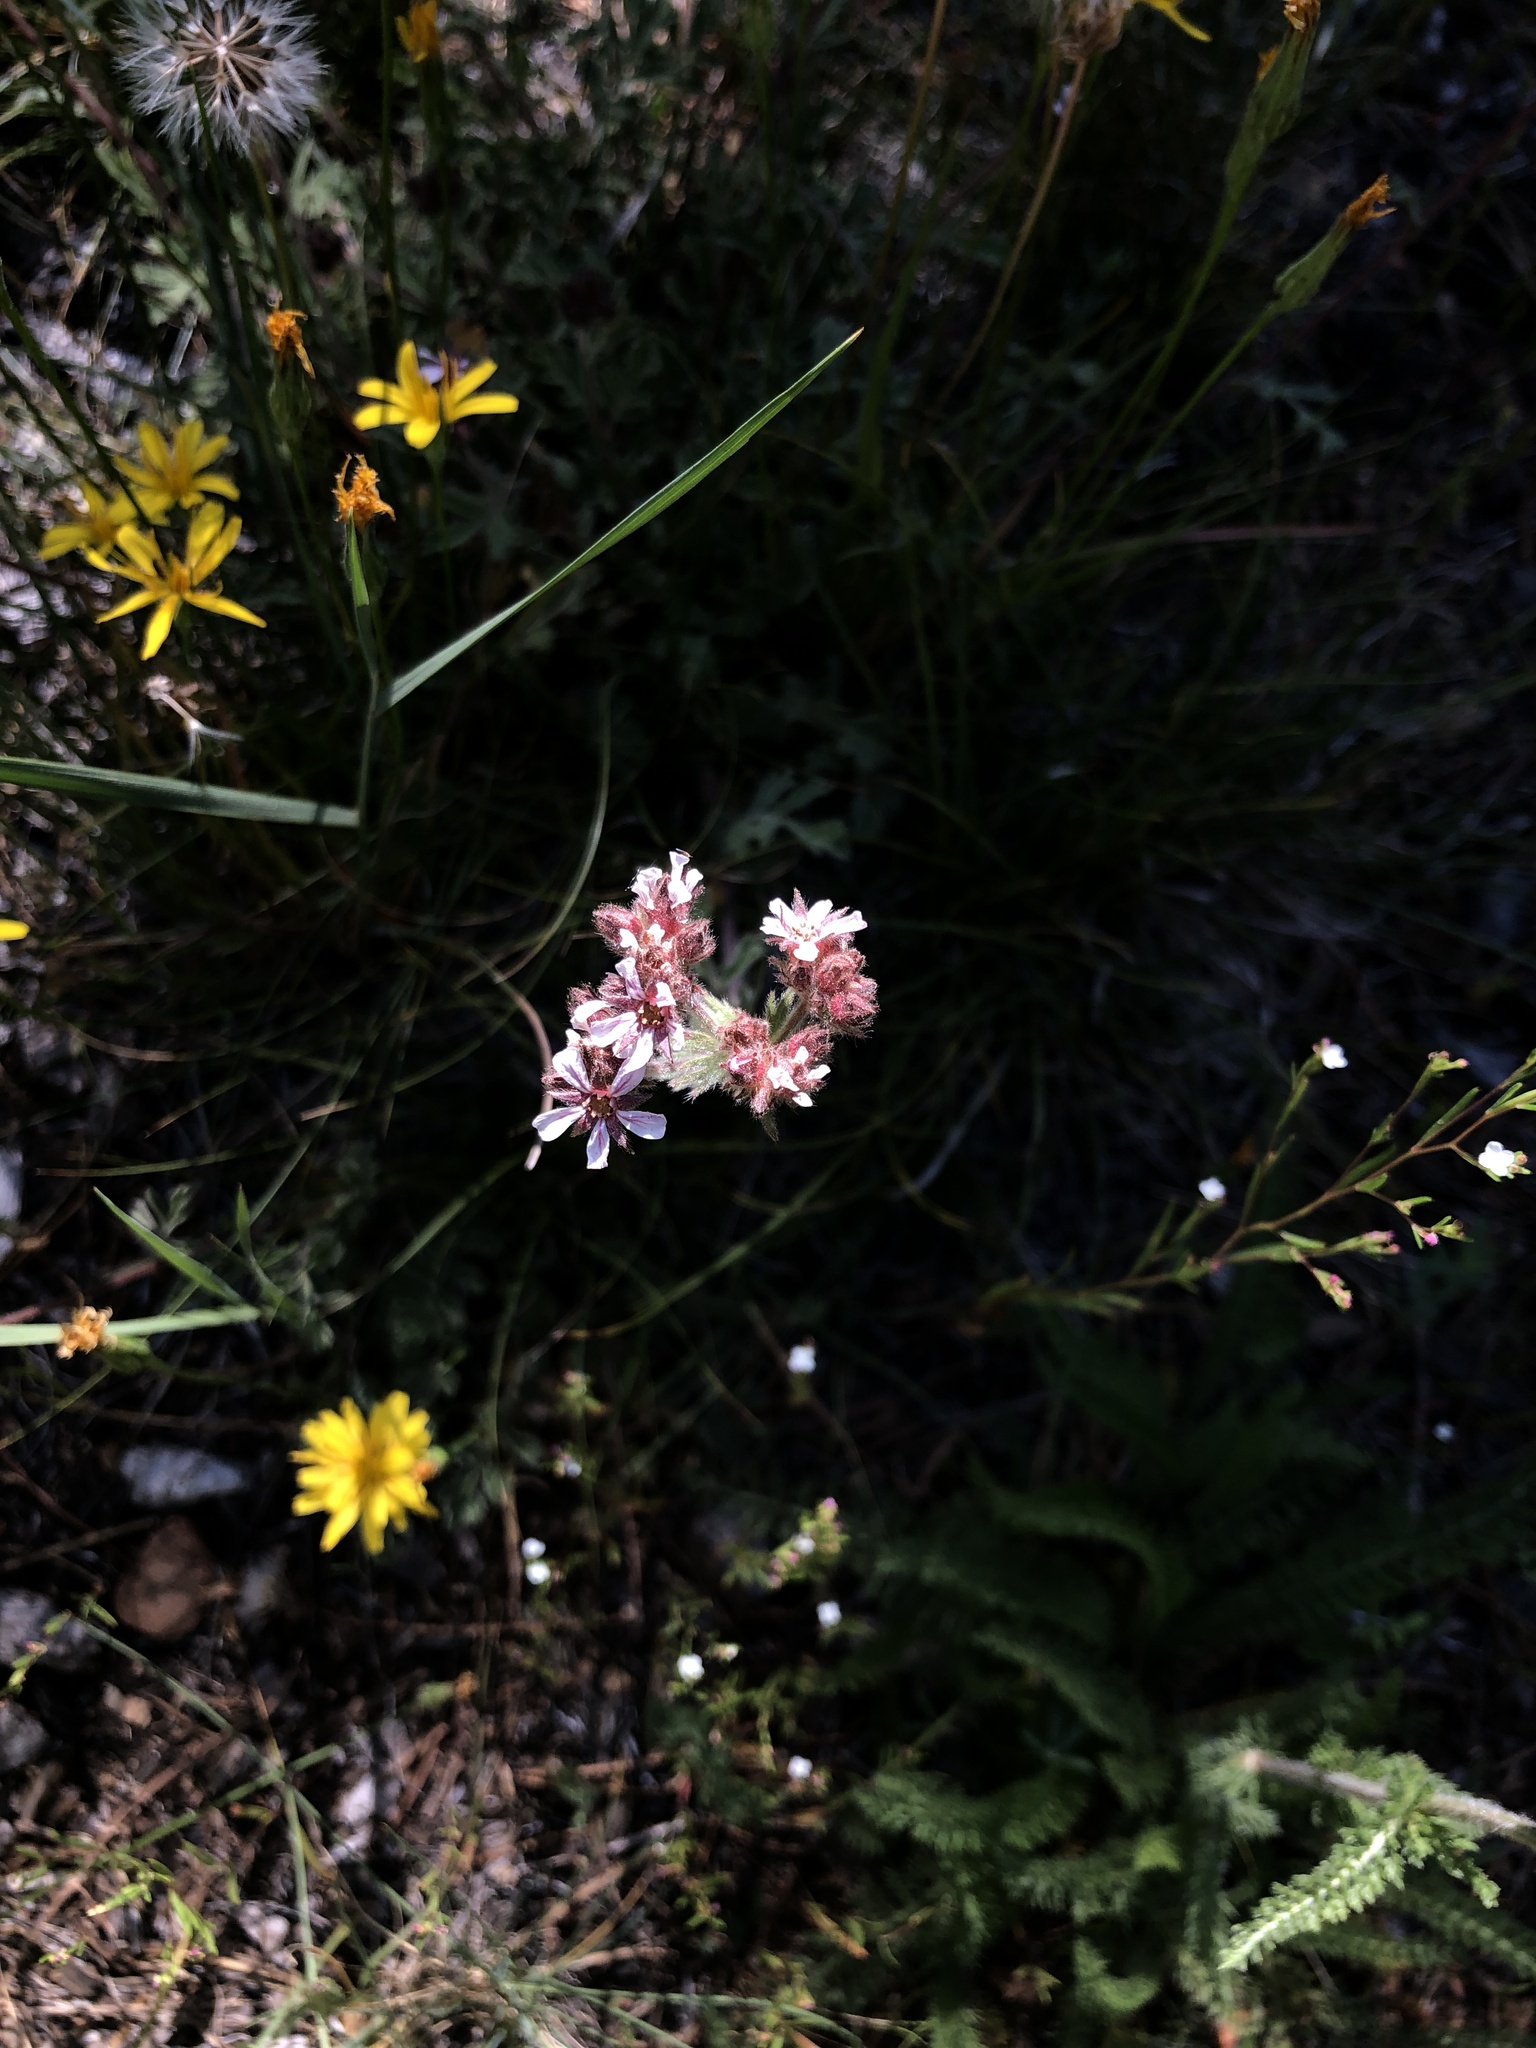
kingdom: Plantae
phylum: Tracheophyta
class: Magnoliopsida
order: Rosales
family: Rosaceae
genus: Potentilla
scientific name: Potentilla douglasii
